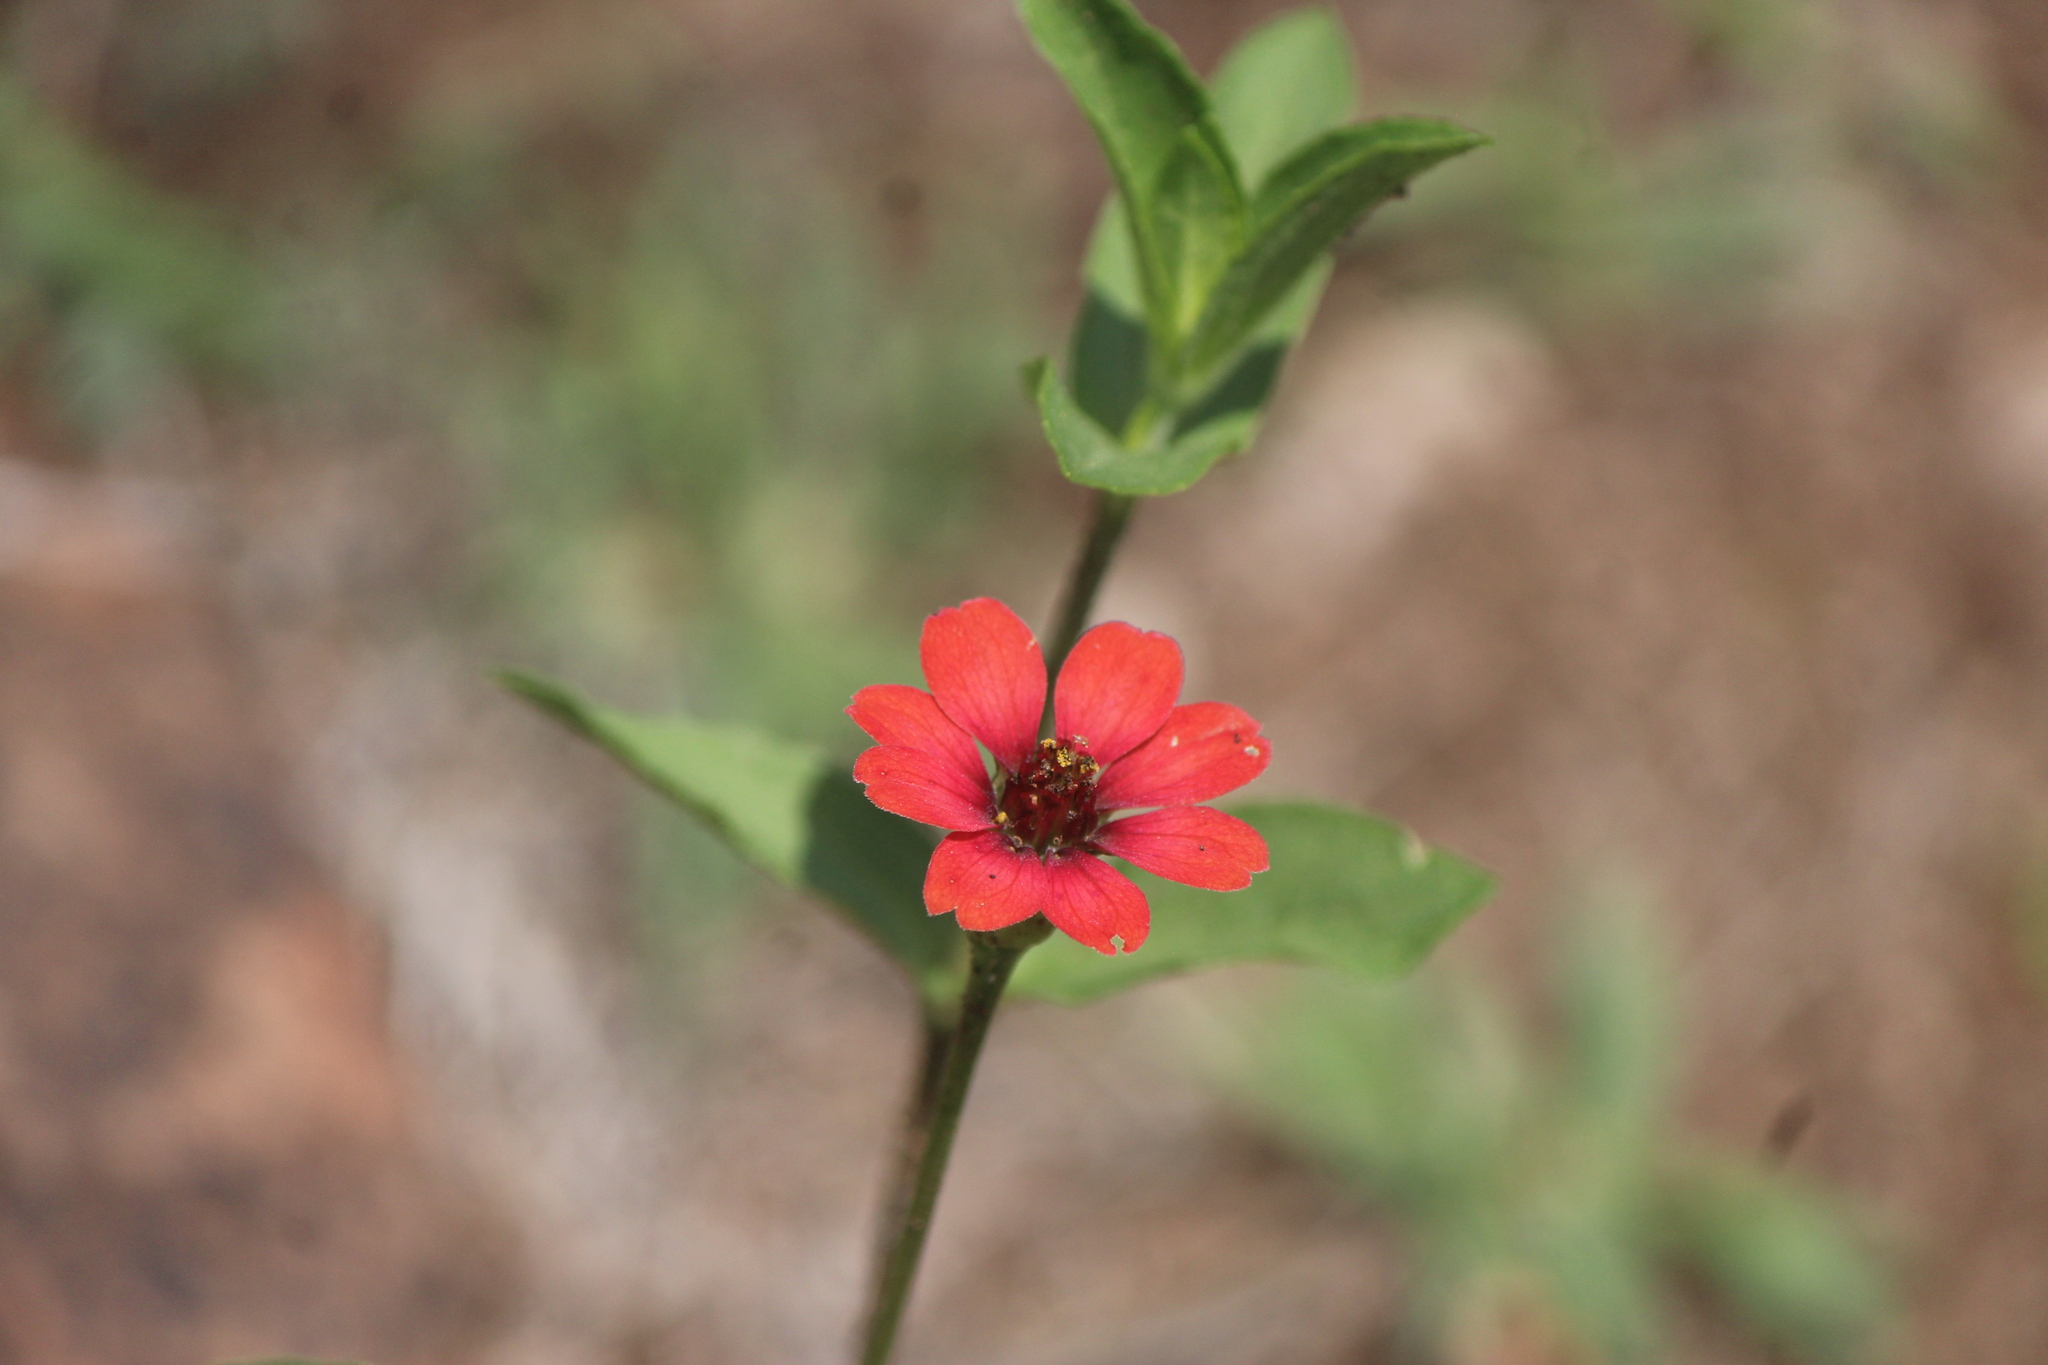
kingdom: Plantae
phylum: Tracheophyta
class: Magnoliopsida
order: Asterales
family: Asteraceae
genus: Zinnia
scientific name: Zinnia peruviana
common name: Peruvian zinnia
